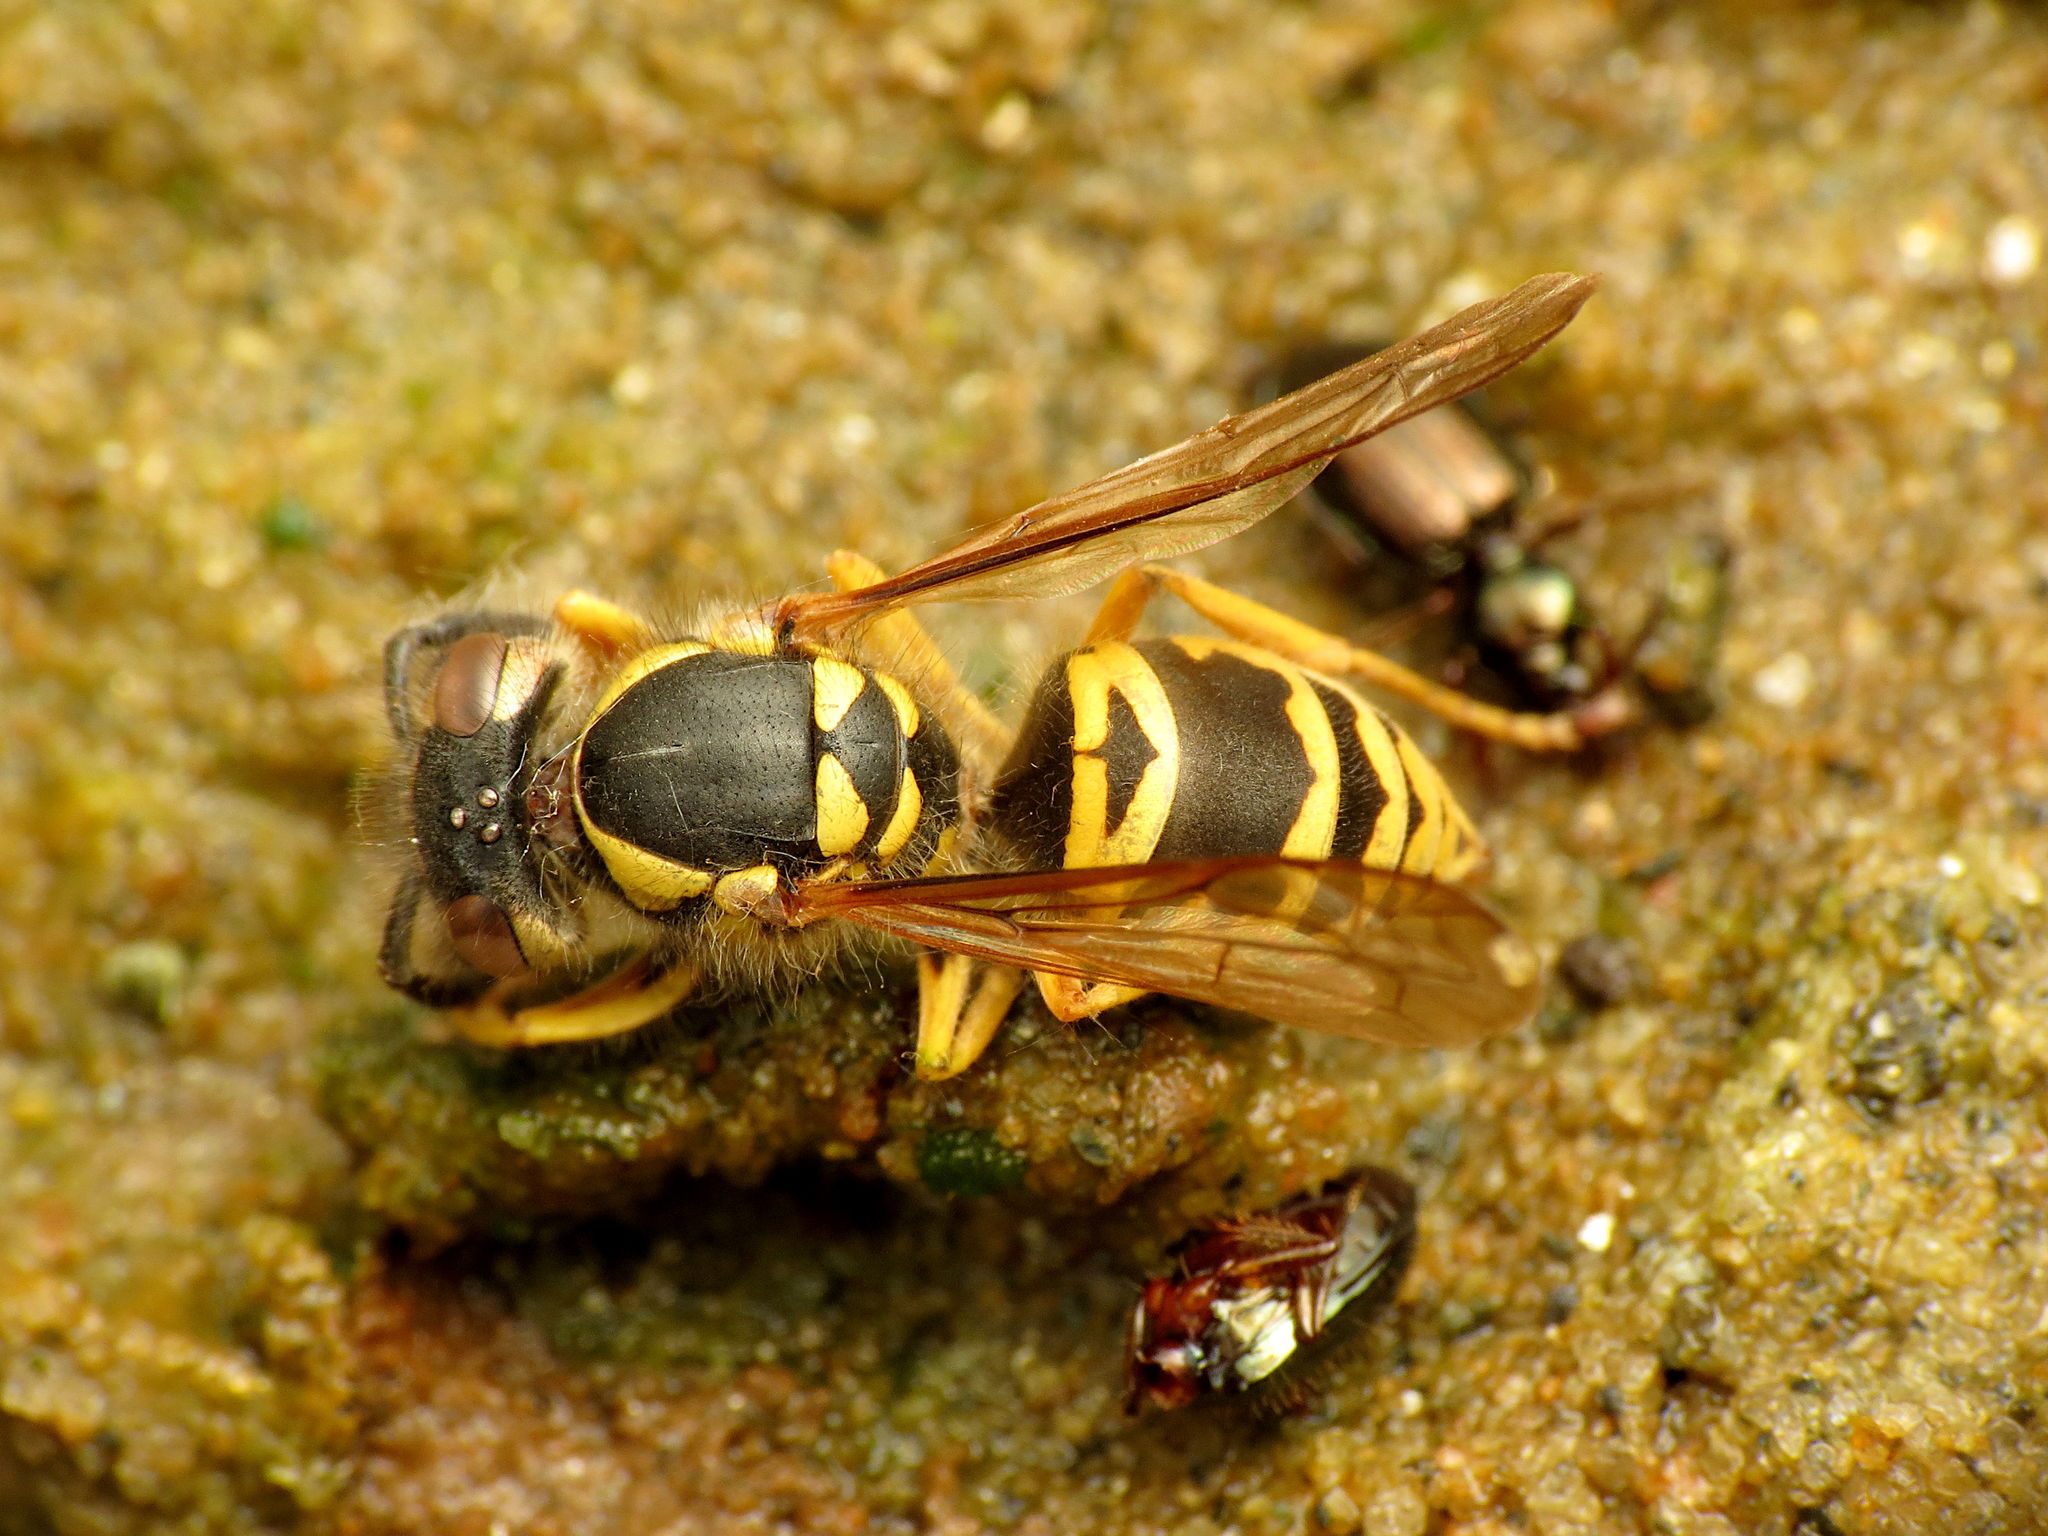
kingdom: Animalia
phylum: Arthropoda
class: Insecta
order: Hymenoptera
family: Vespidae
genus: Vespula
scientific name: Vespula maculifrons
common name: Eastern yellowjacket
